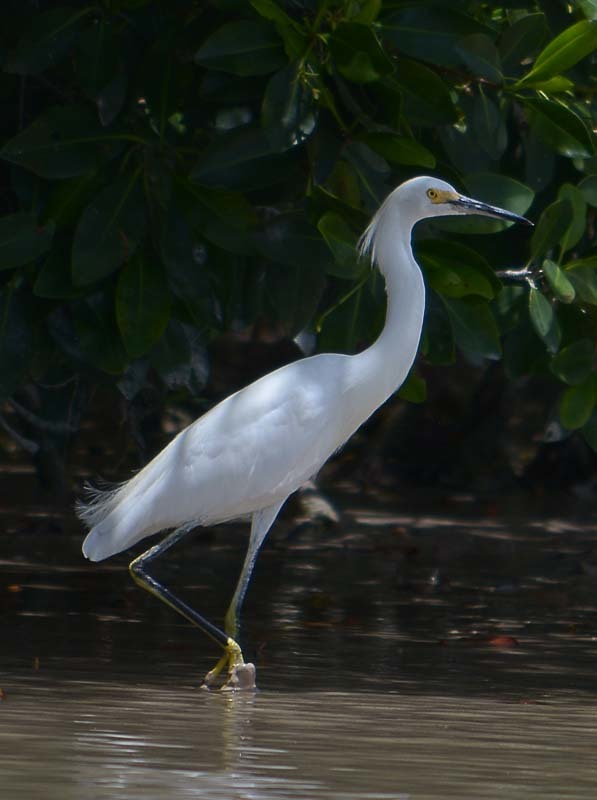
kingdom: Animalia
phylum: Chordata
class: Aves
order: Pelecaniformes
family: Ardeidae
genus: Egretta
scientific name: Egretta thula
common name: Snowy egret
